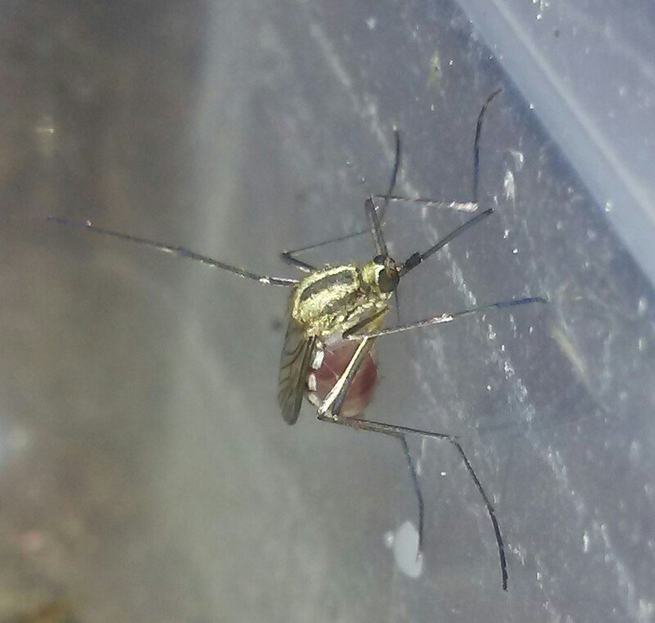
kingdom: Animalia
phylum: Arthropoda
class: Insecta
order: Diptera
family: Culicidae
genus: Aedes
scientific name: Aedes trivittatus
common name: Plains floodwater mosquito
